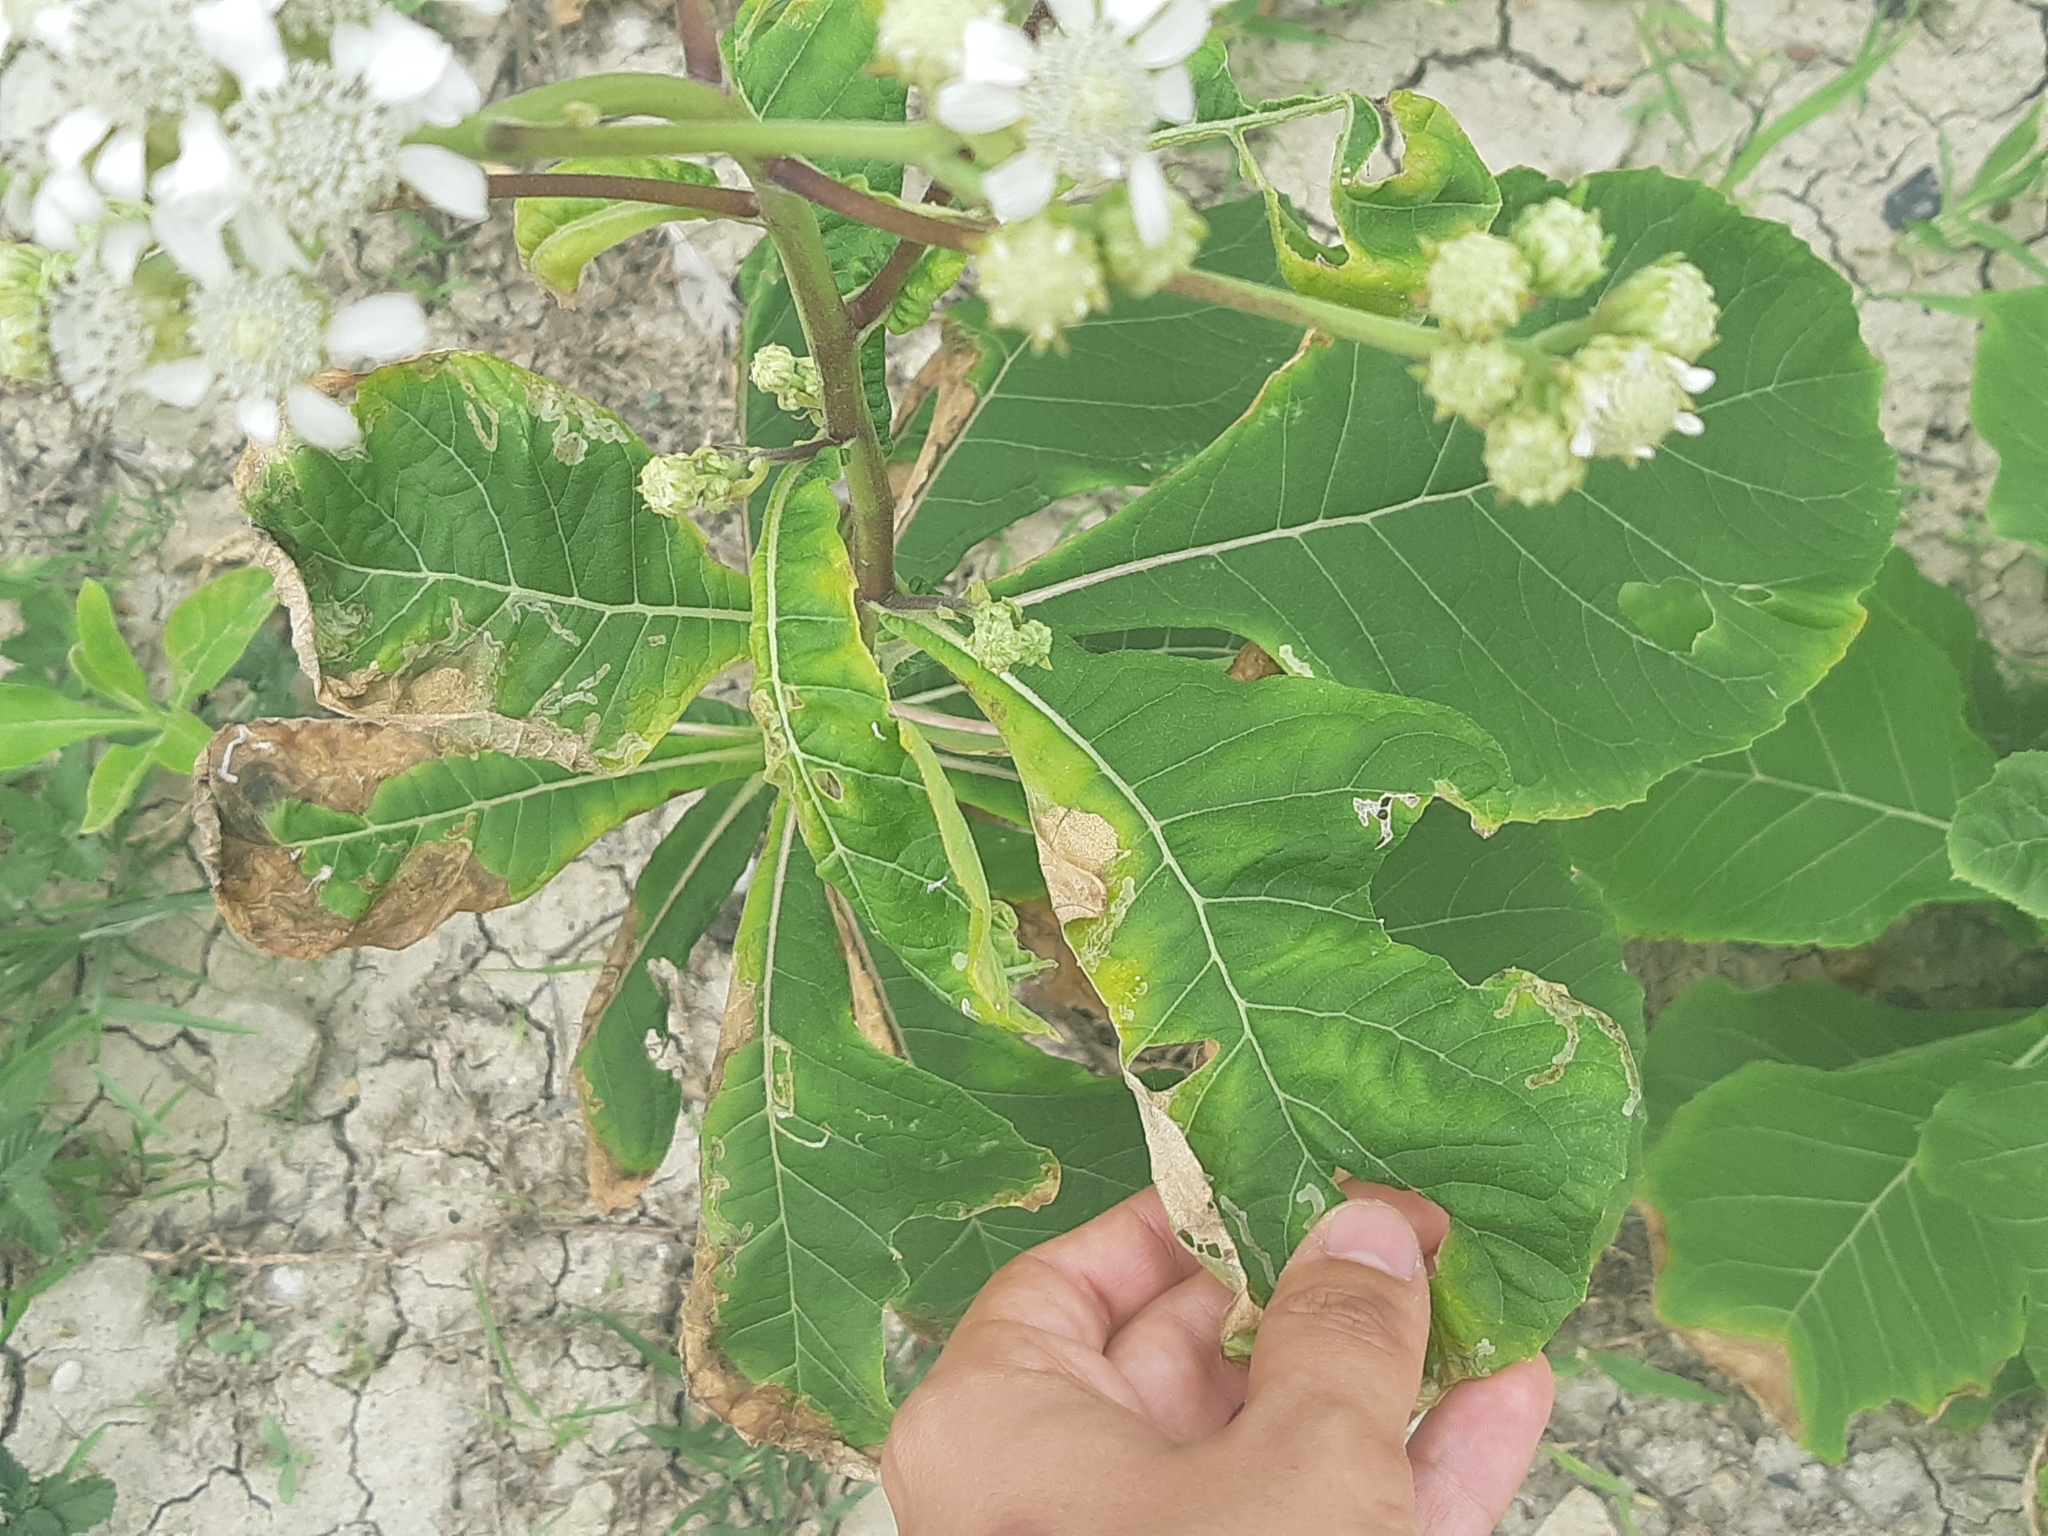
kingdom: Plantae
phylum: Tracheophyta
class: Magnoliopsida
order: Asterales
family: Asteraceae
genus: Verbesina
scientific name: Verbesina eggersii
